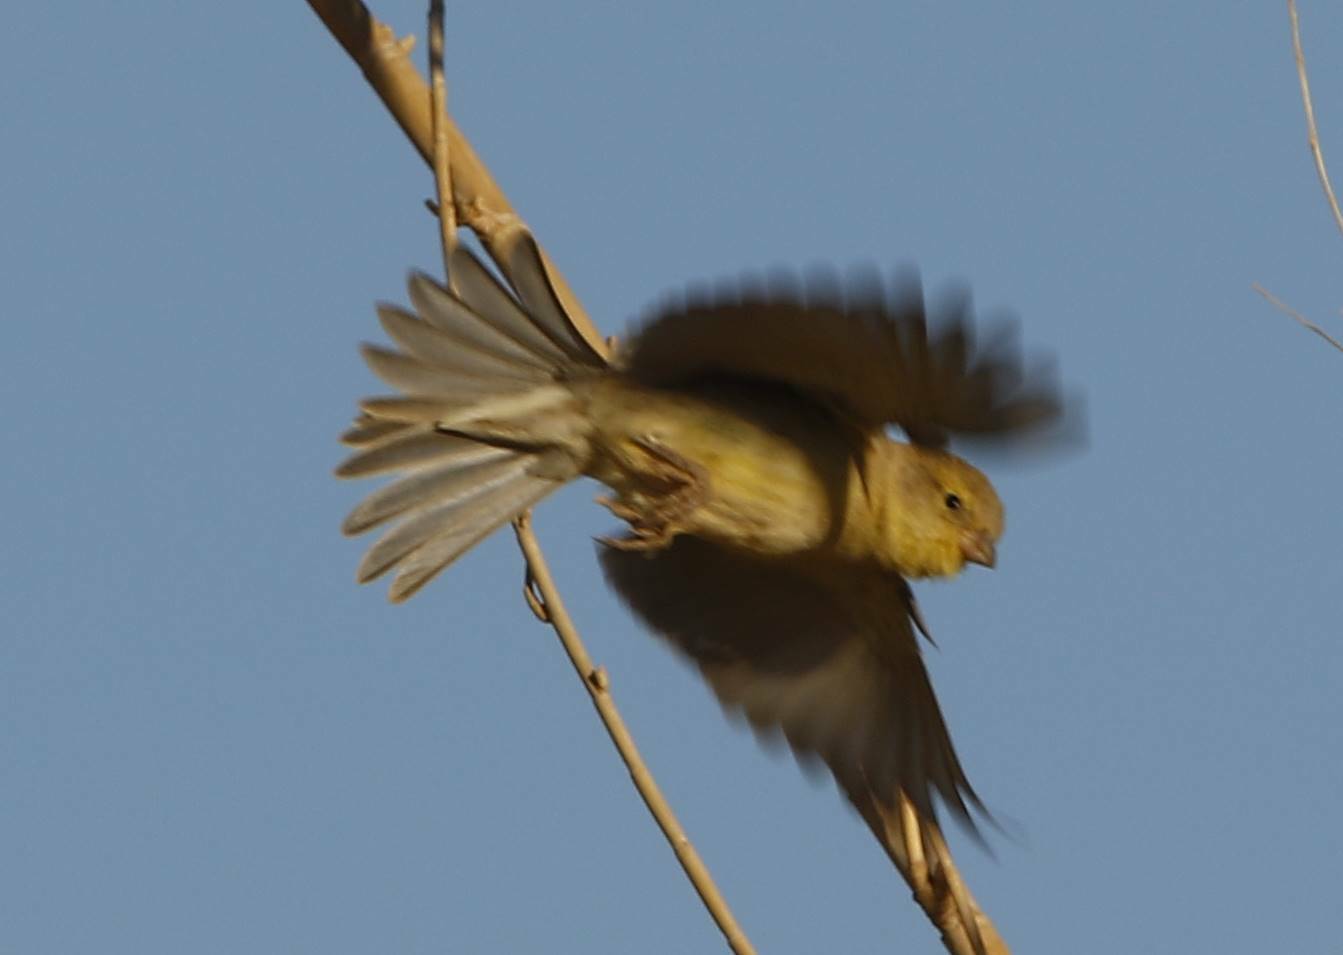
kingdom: Animalia
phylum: Chordata
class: Aves
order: Passeriformes
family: Passeridae
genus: Passer
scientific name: Passer luteus
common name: Sudan golden sparrow
